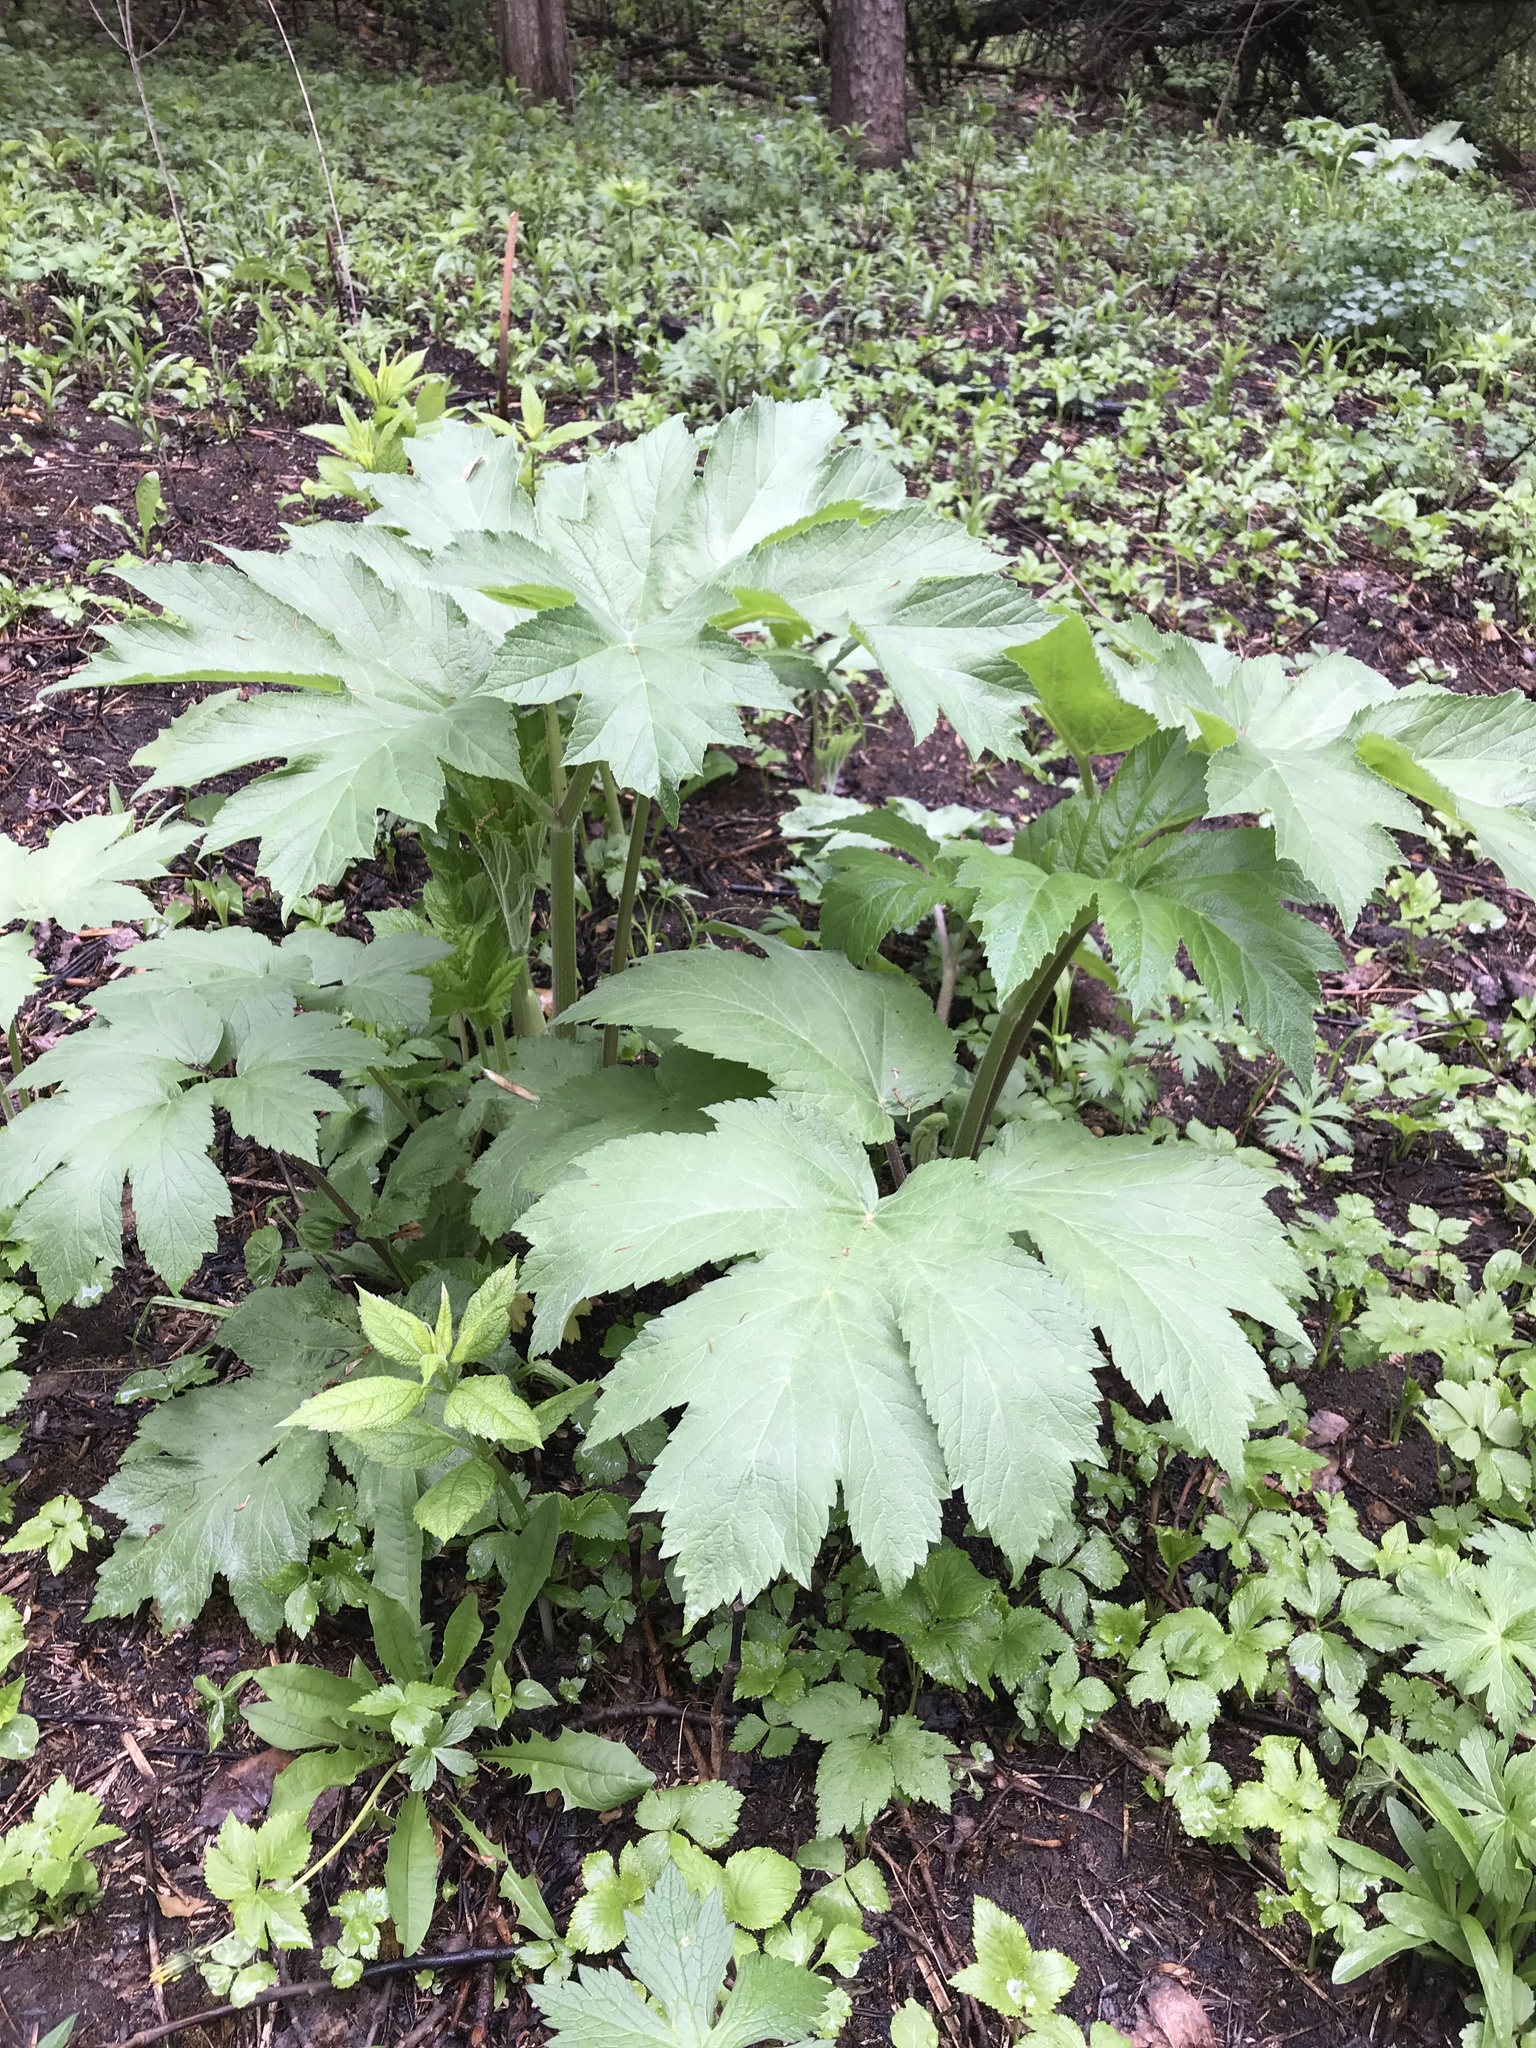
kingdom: Plantae
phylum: Tracheophyta
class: Magnoliopsida
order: Apiales
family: Apiaceae
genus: Heracleum
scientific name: Heracleum maximum
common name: American cow parsnip
